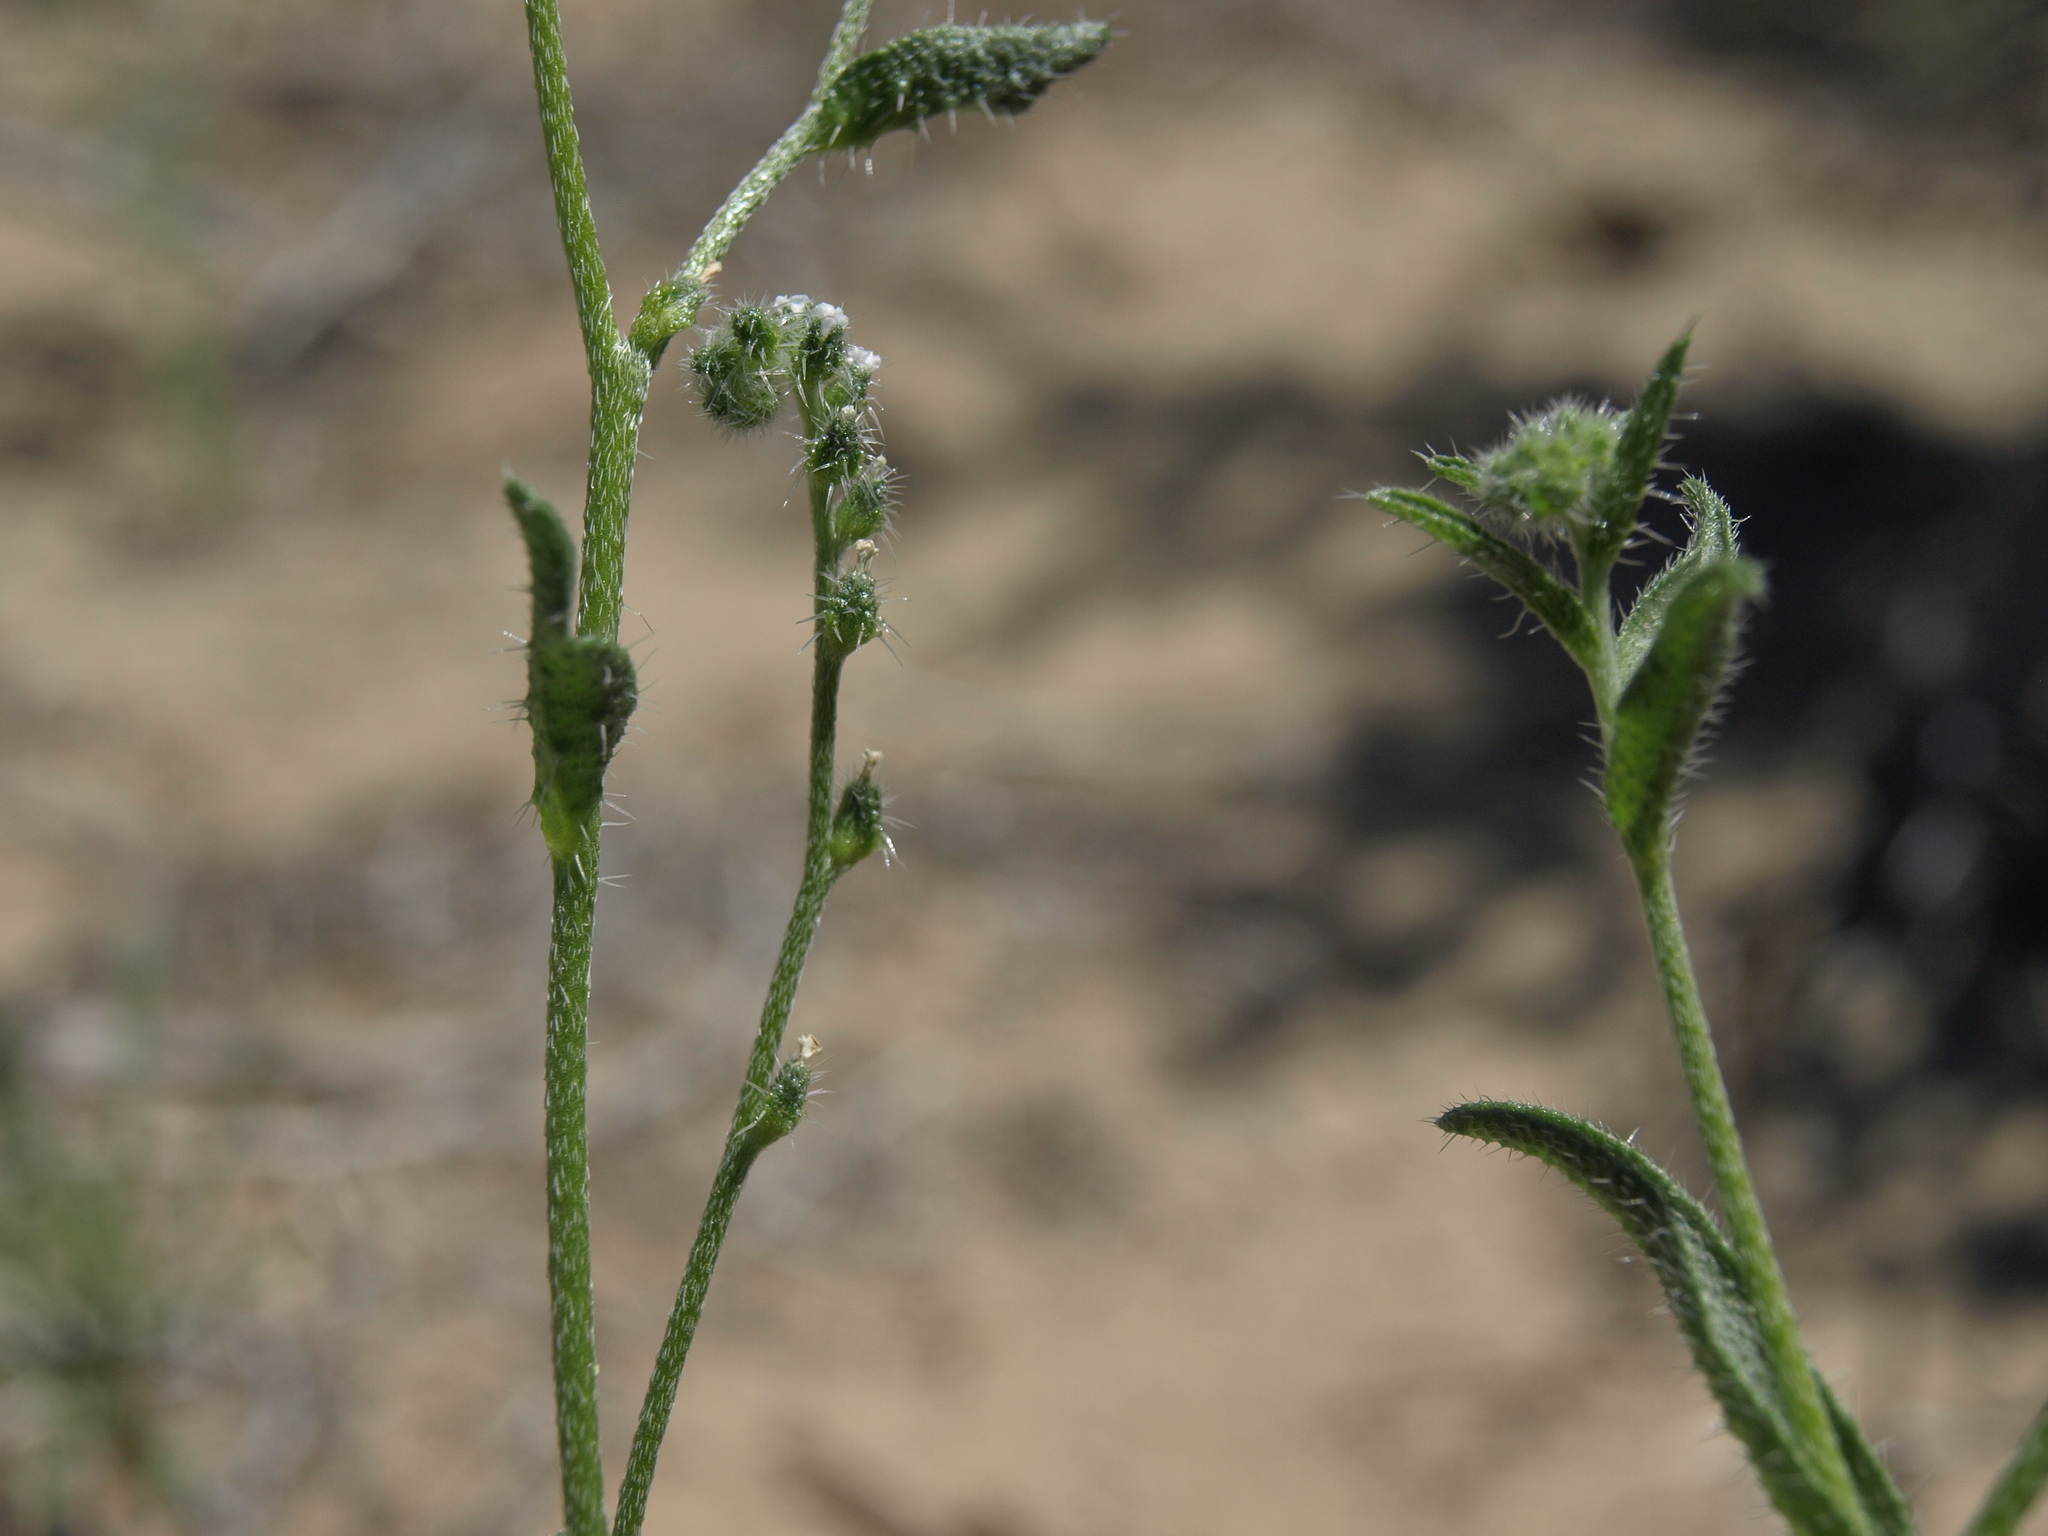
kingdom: Plantae
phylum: Tracheophyta
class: Magnoliopsida
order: Boraginales
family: Boraginaceae
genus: Cryptantha
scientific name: Cryptantha dumetorum
